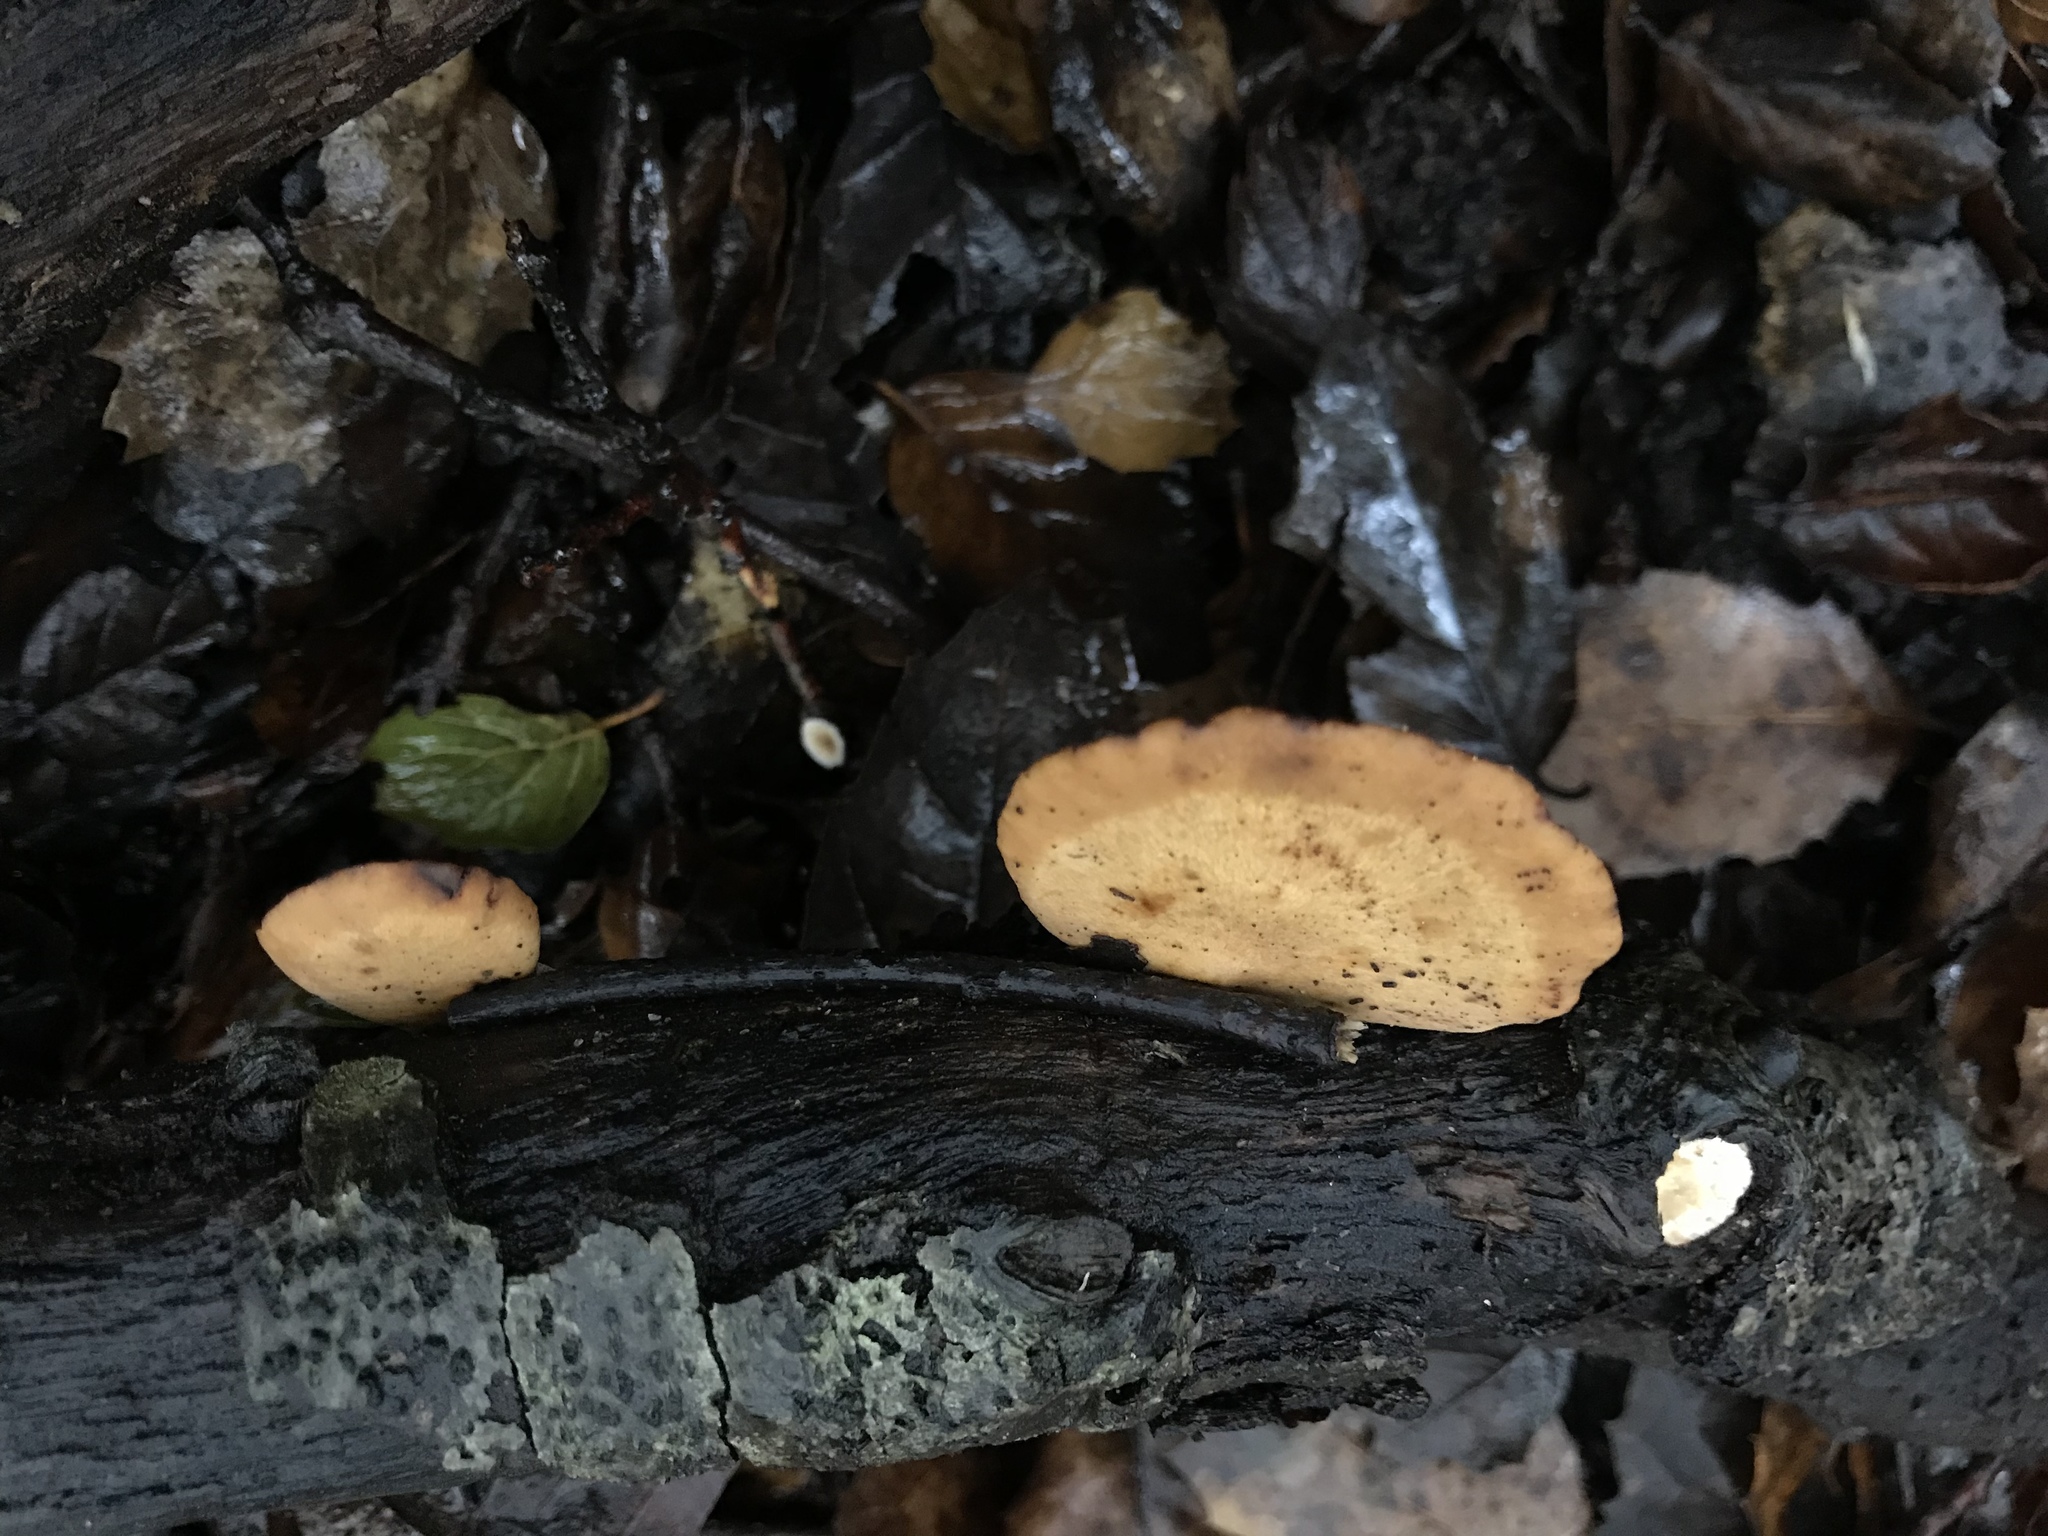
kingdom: Fungi
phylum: Basidiomycota
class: Agaricomycetes
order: Polyporales
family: Polyporaceae
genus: Cerioporus
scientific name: Cerioporus leptocephalus
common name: Blackfoot polypore
